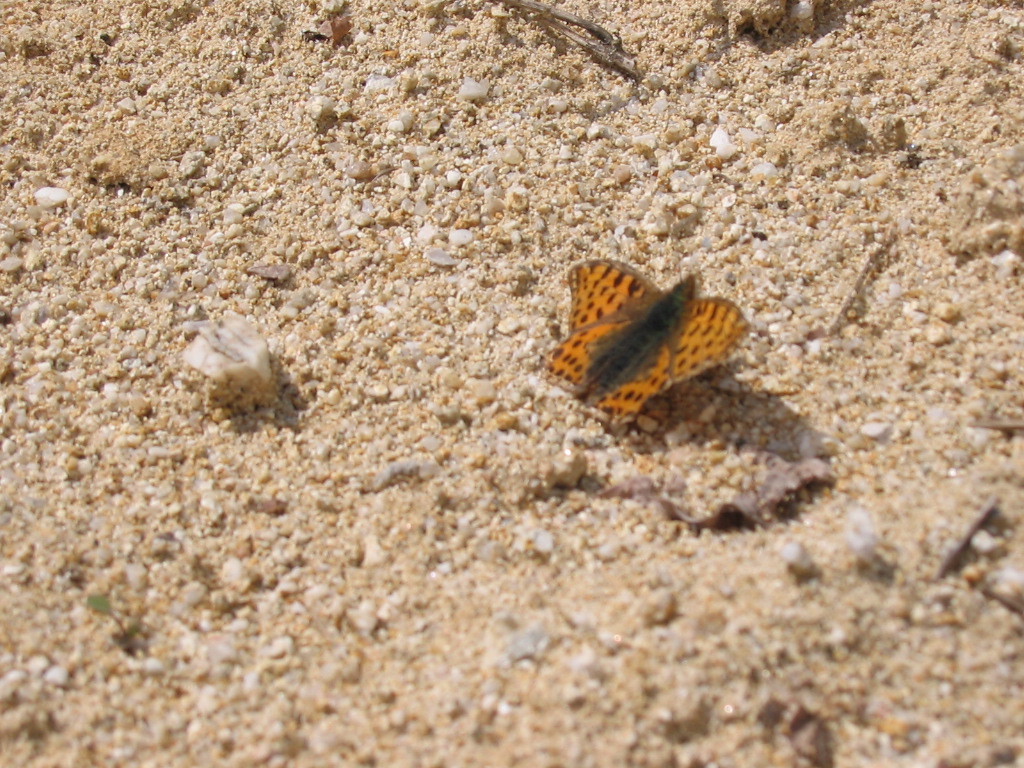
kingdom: Animalia
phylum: Arthropoda
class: Insecta
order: Lepidoptera
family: Nymphalidae
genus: Issoria
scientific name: Issoria lathonia
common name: Queen of spain fritillary
